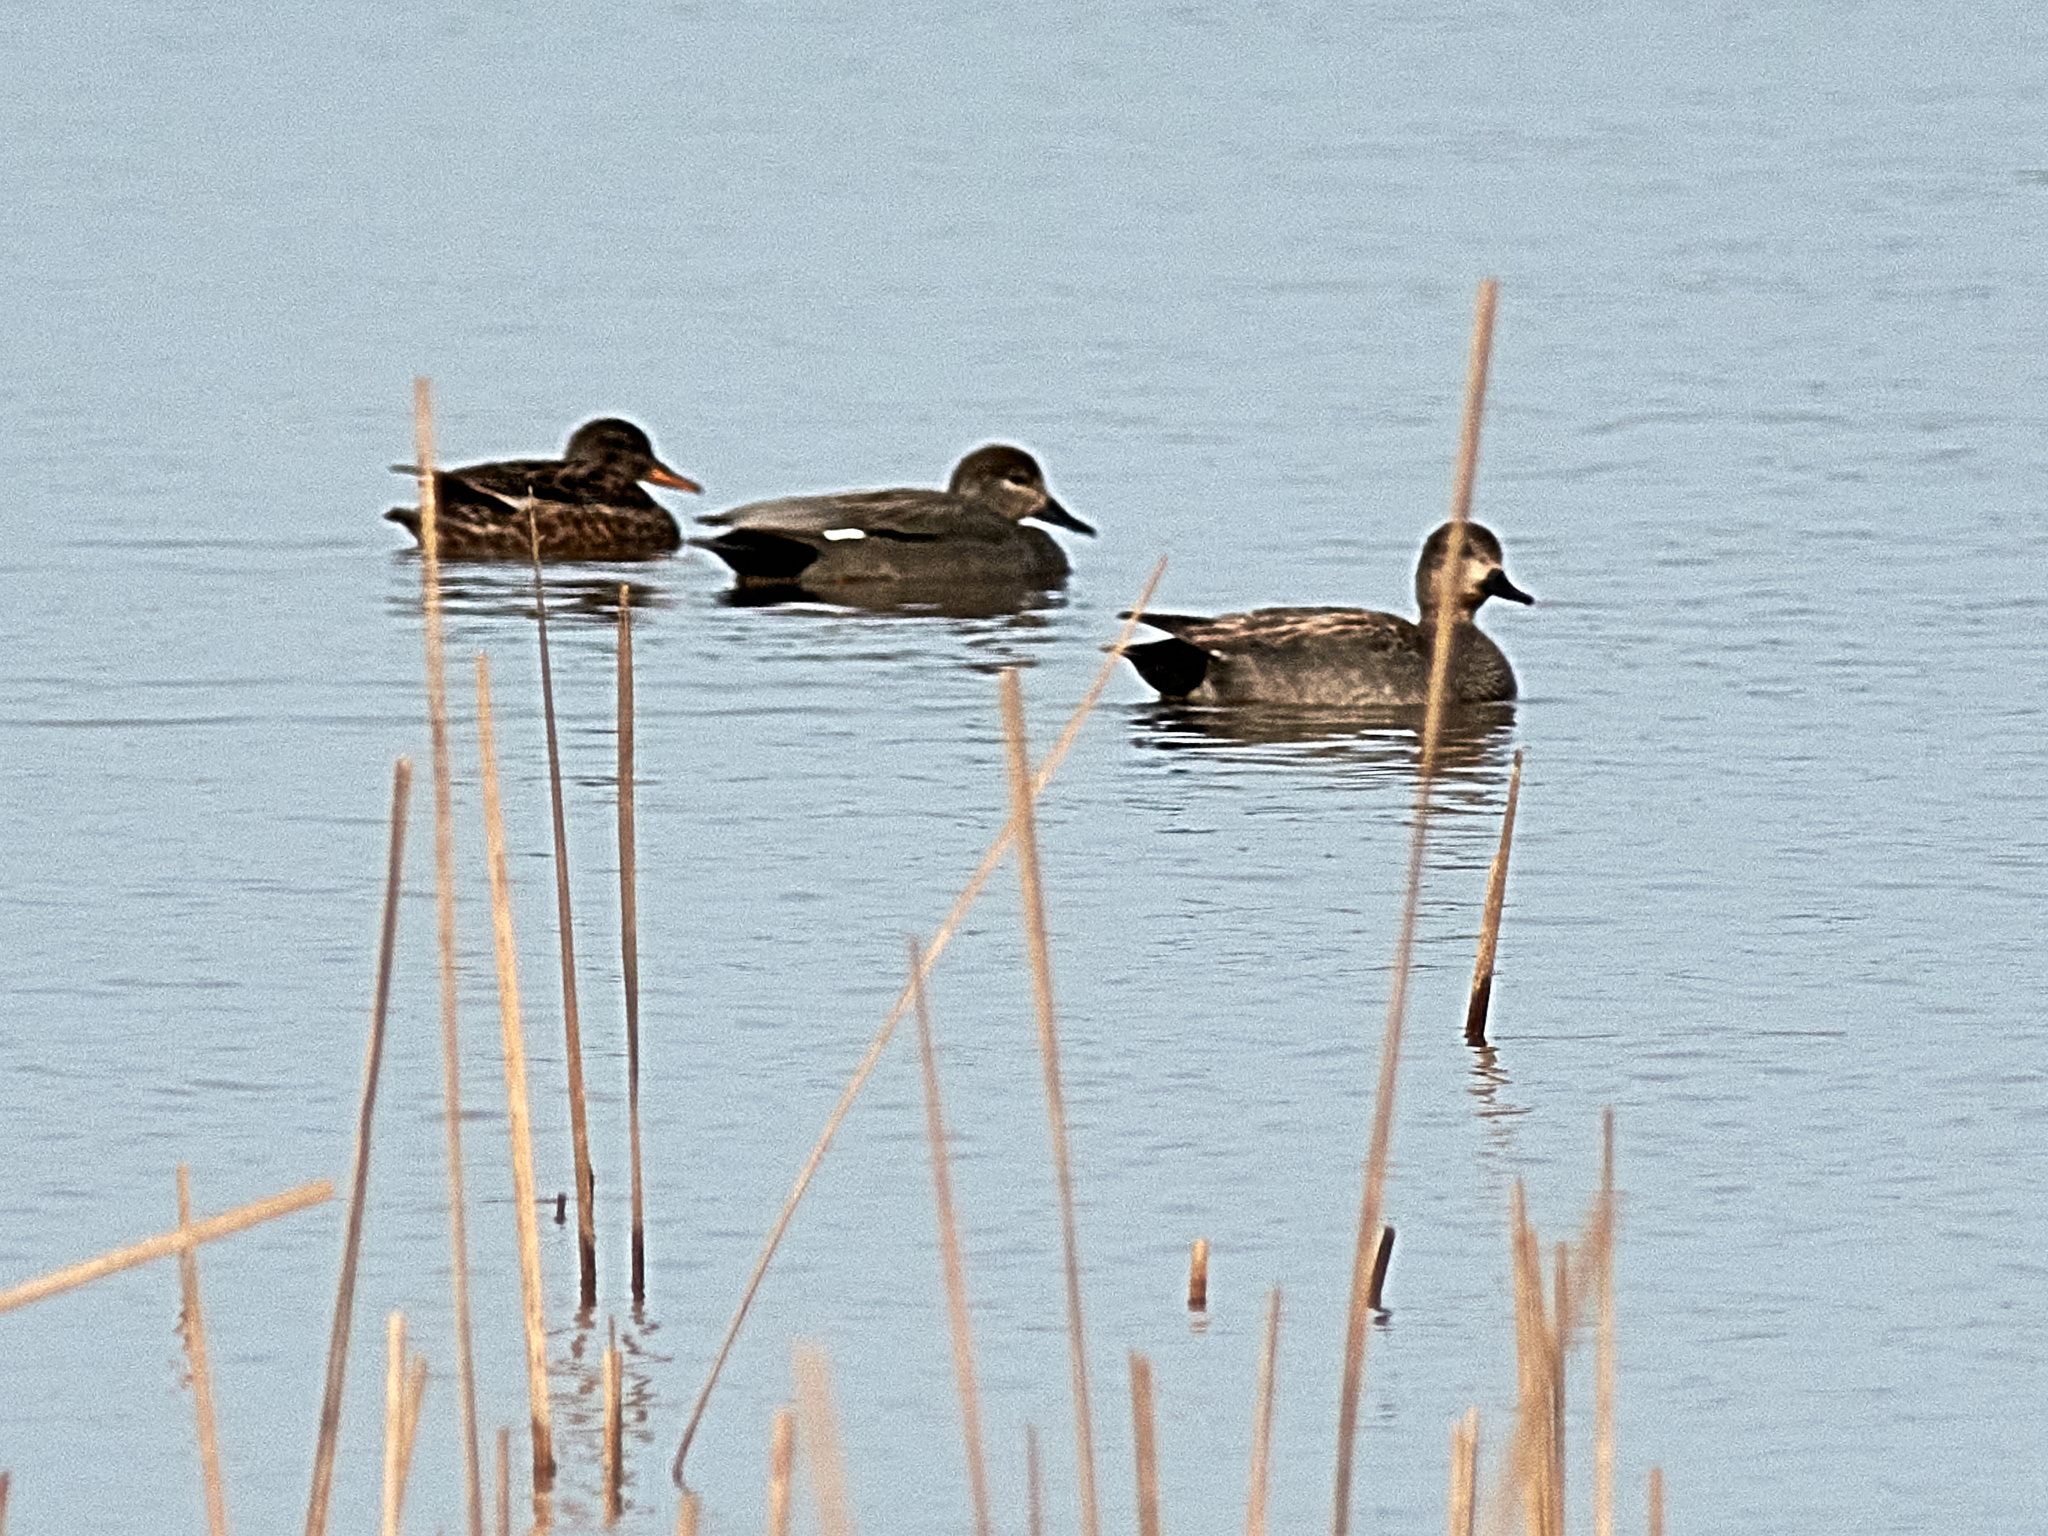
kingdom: Animalia
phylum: Chordata
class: Aves
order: Anseriformes
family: Anatidae
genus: Mareca
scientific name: Mareca strepera
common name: Gadwall
